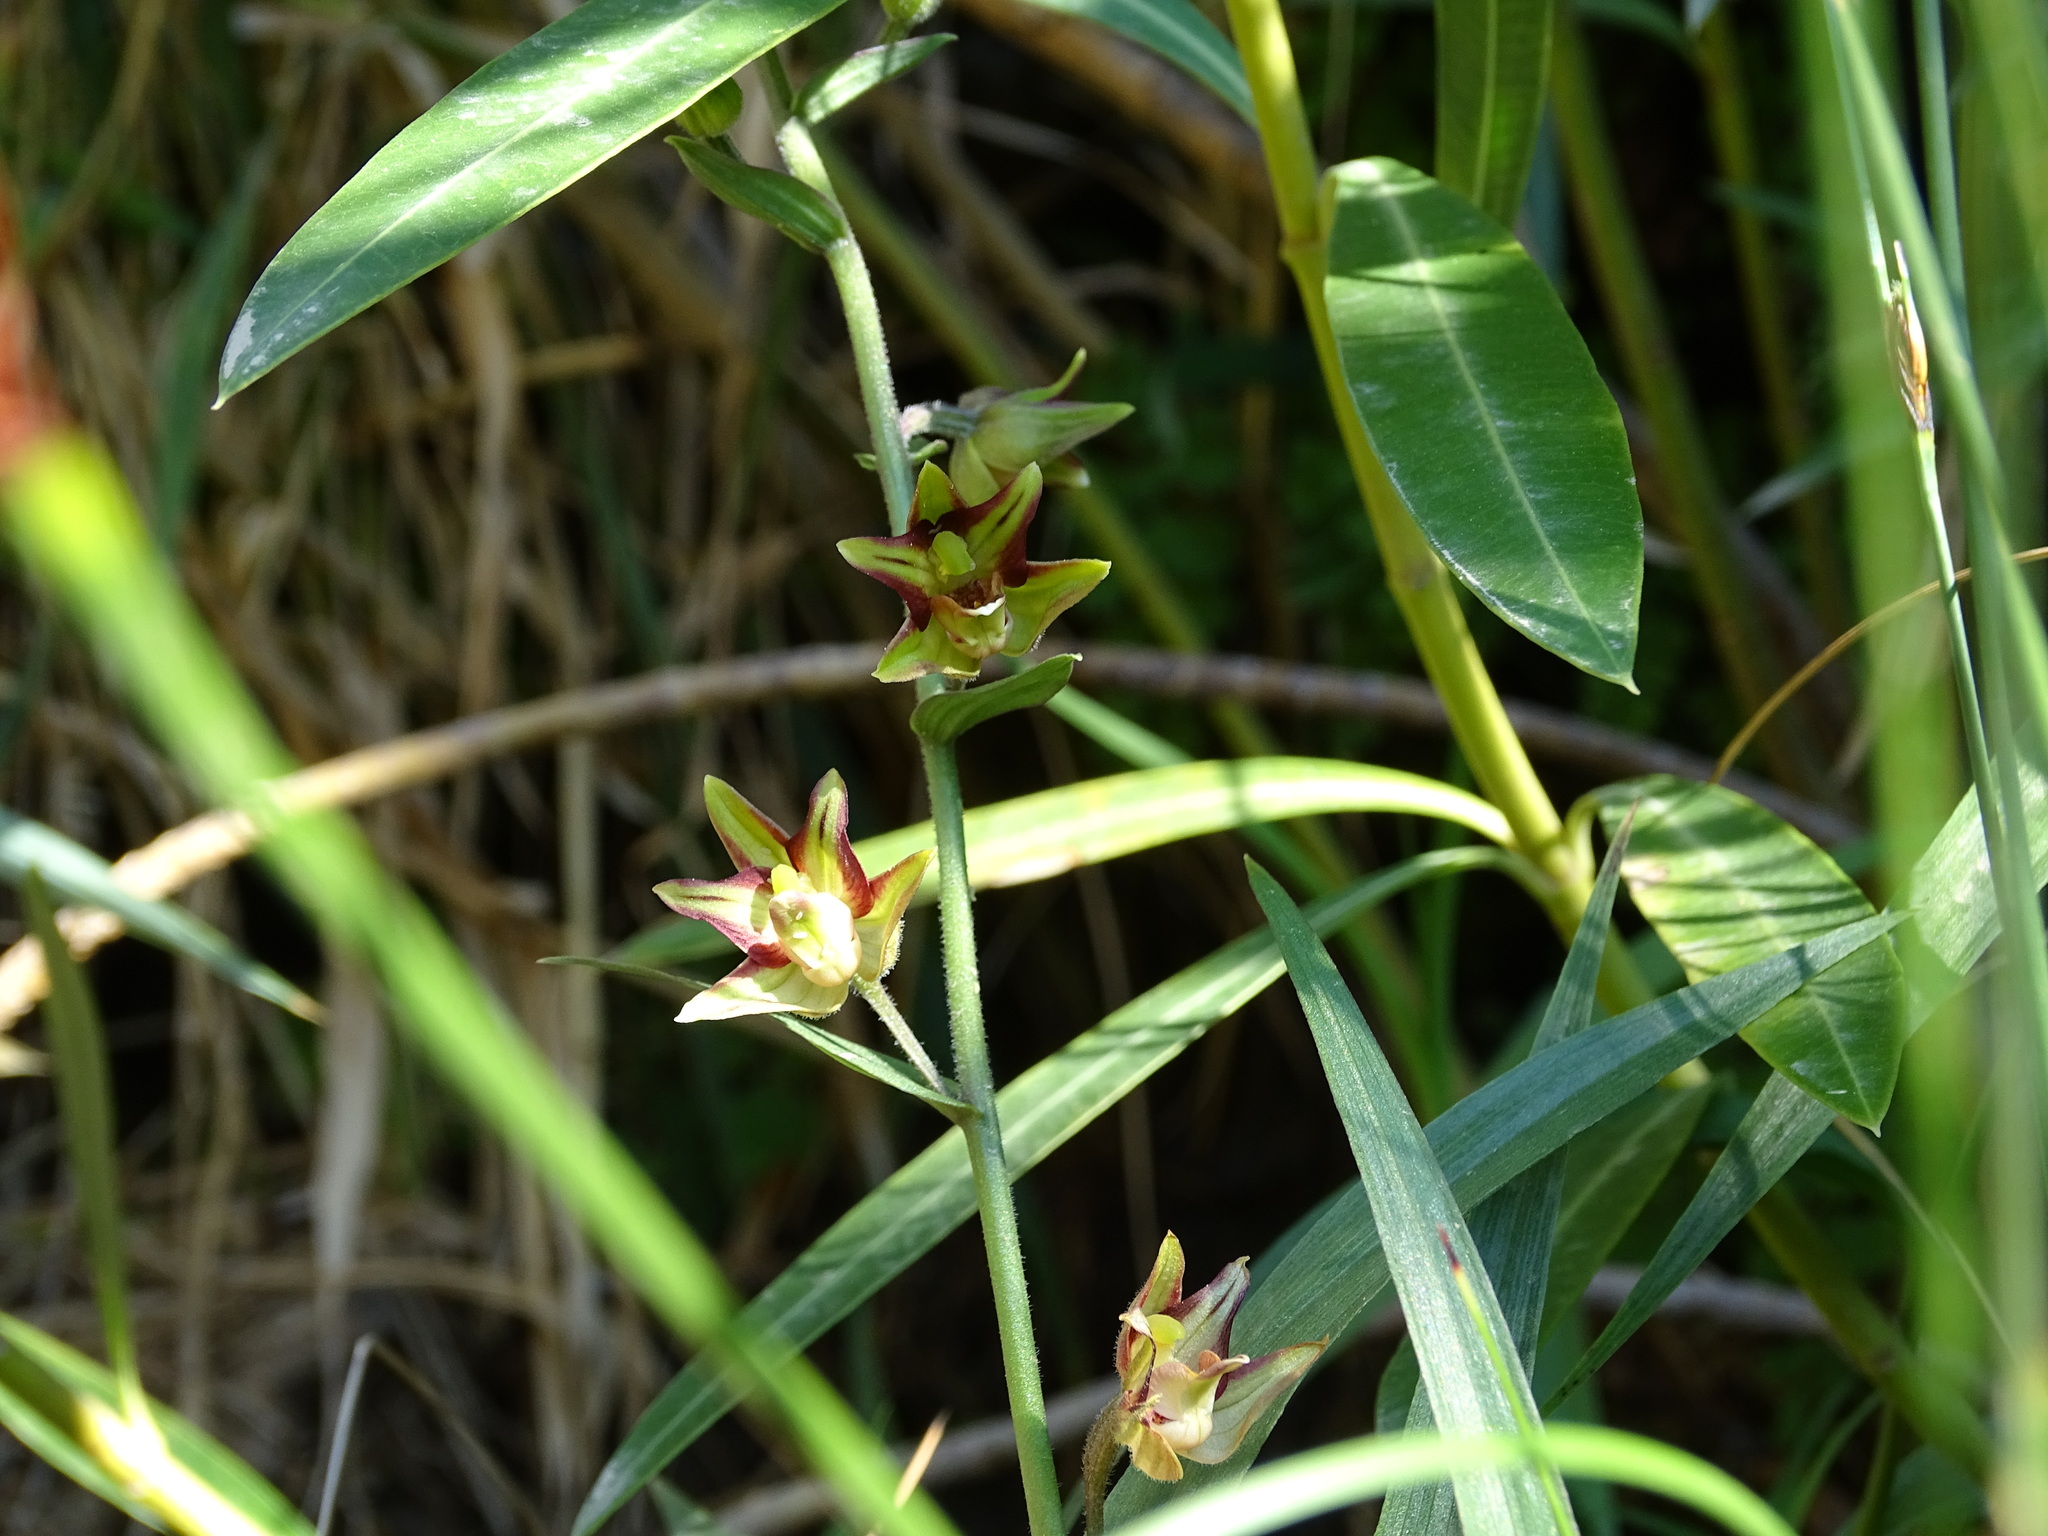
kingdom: Plantae
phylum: Tracheophyta
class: Liliopsida
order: Asparagales
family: Orchidaceae
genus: Epipactis
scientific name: Epipactis veratrifolia
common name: Eastern marsh helleborine
